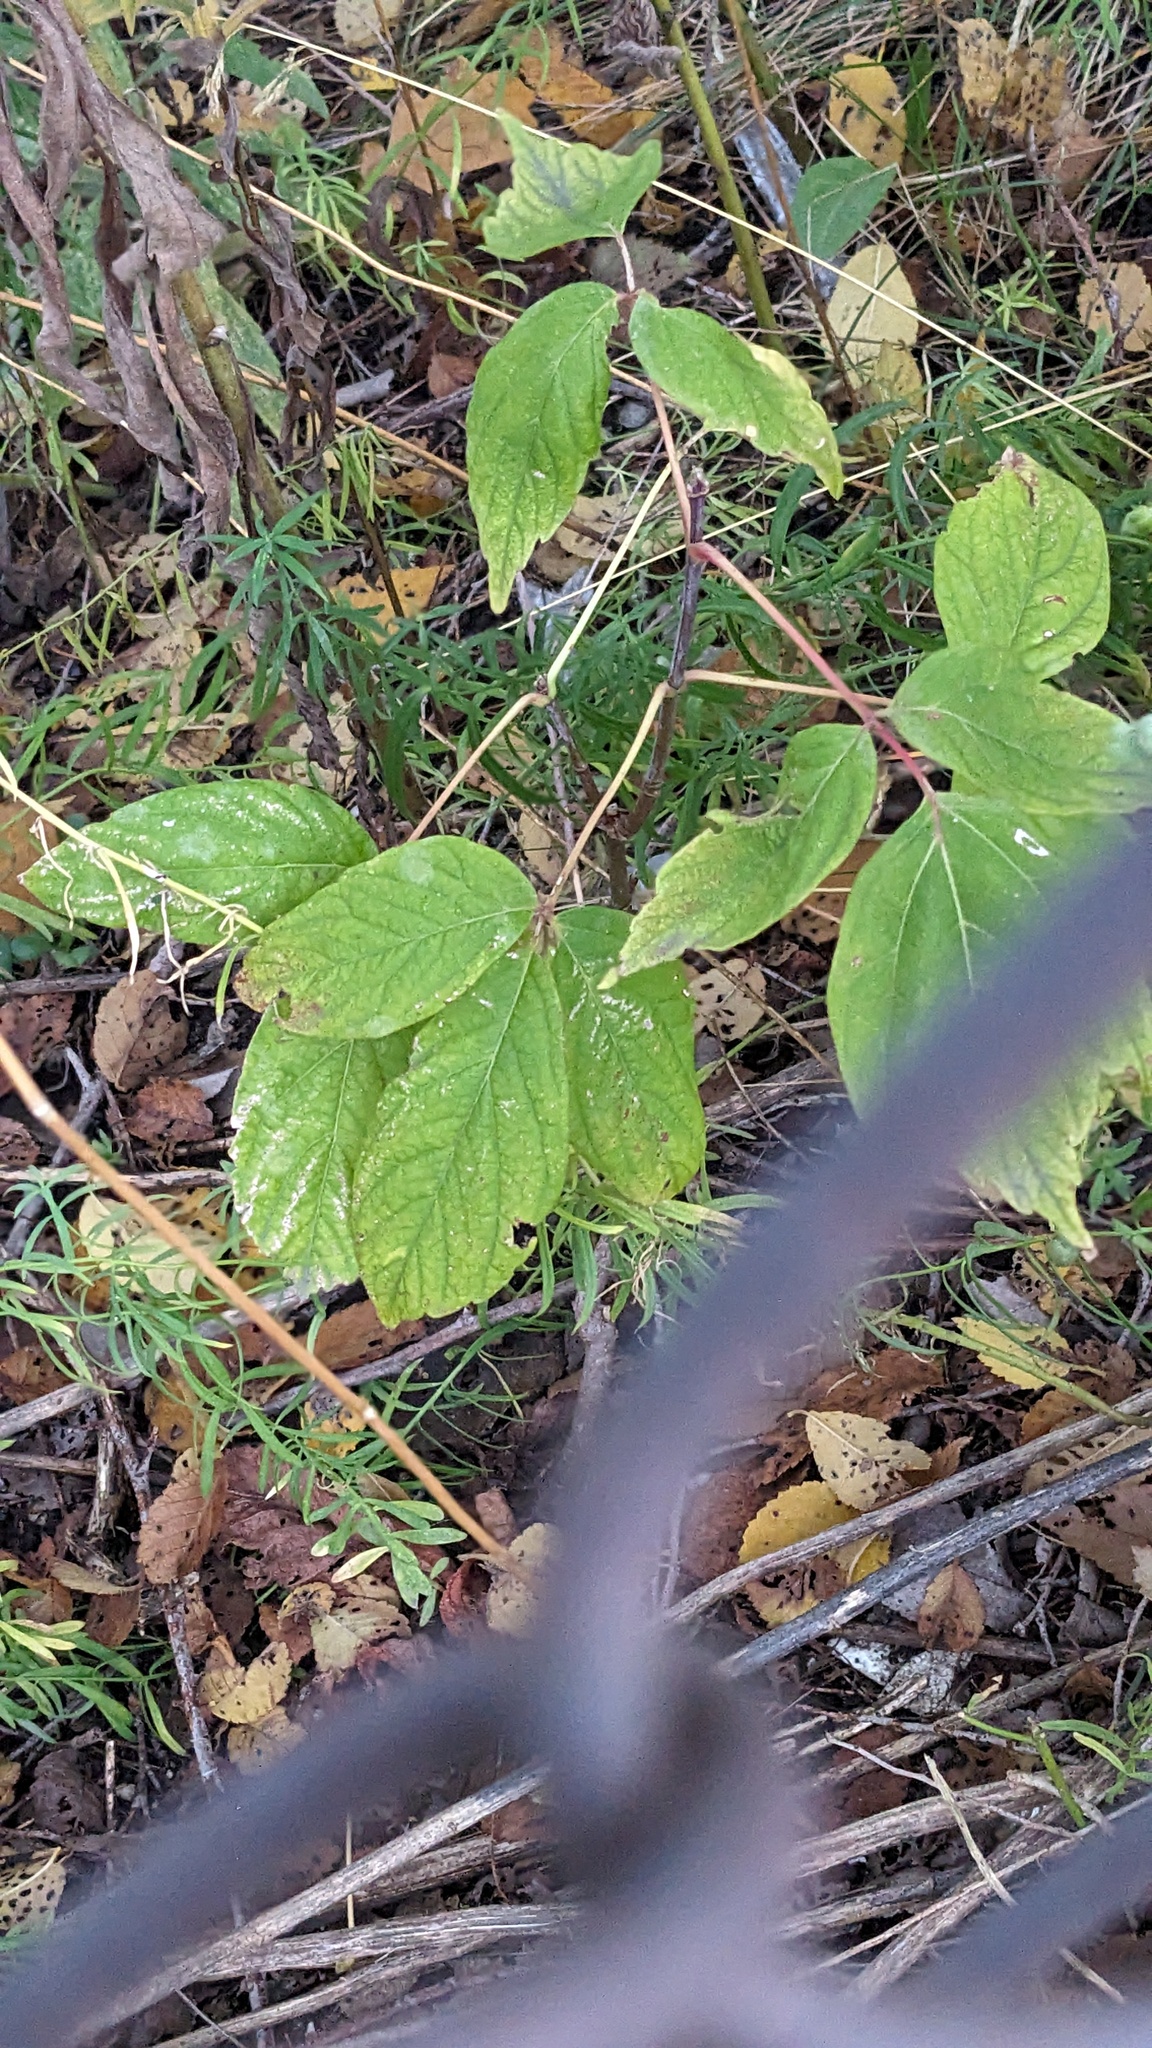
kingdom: Plantae
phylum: Tracheophyta
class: Magnoliopsida
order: Sapindales
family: Sapindaceae
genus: Acer
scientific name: Acer negundo
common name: Ashleaf maple
